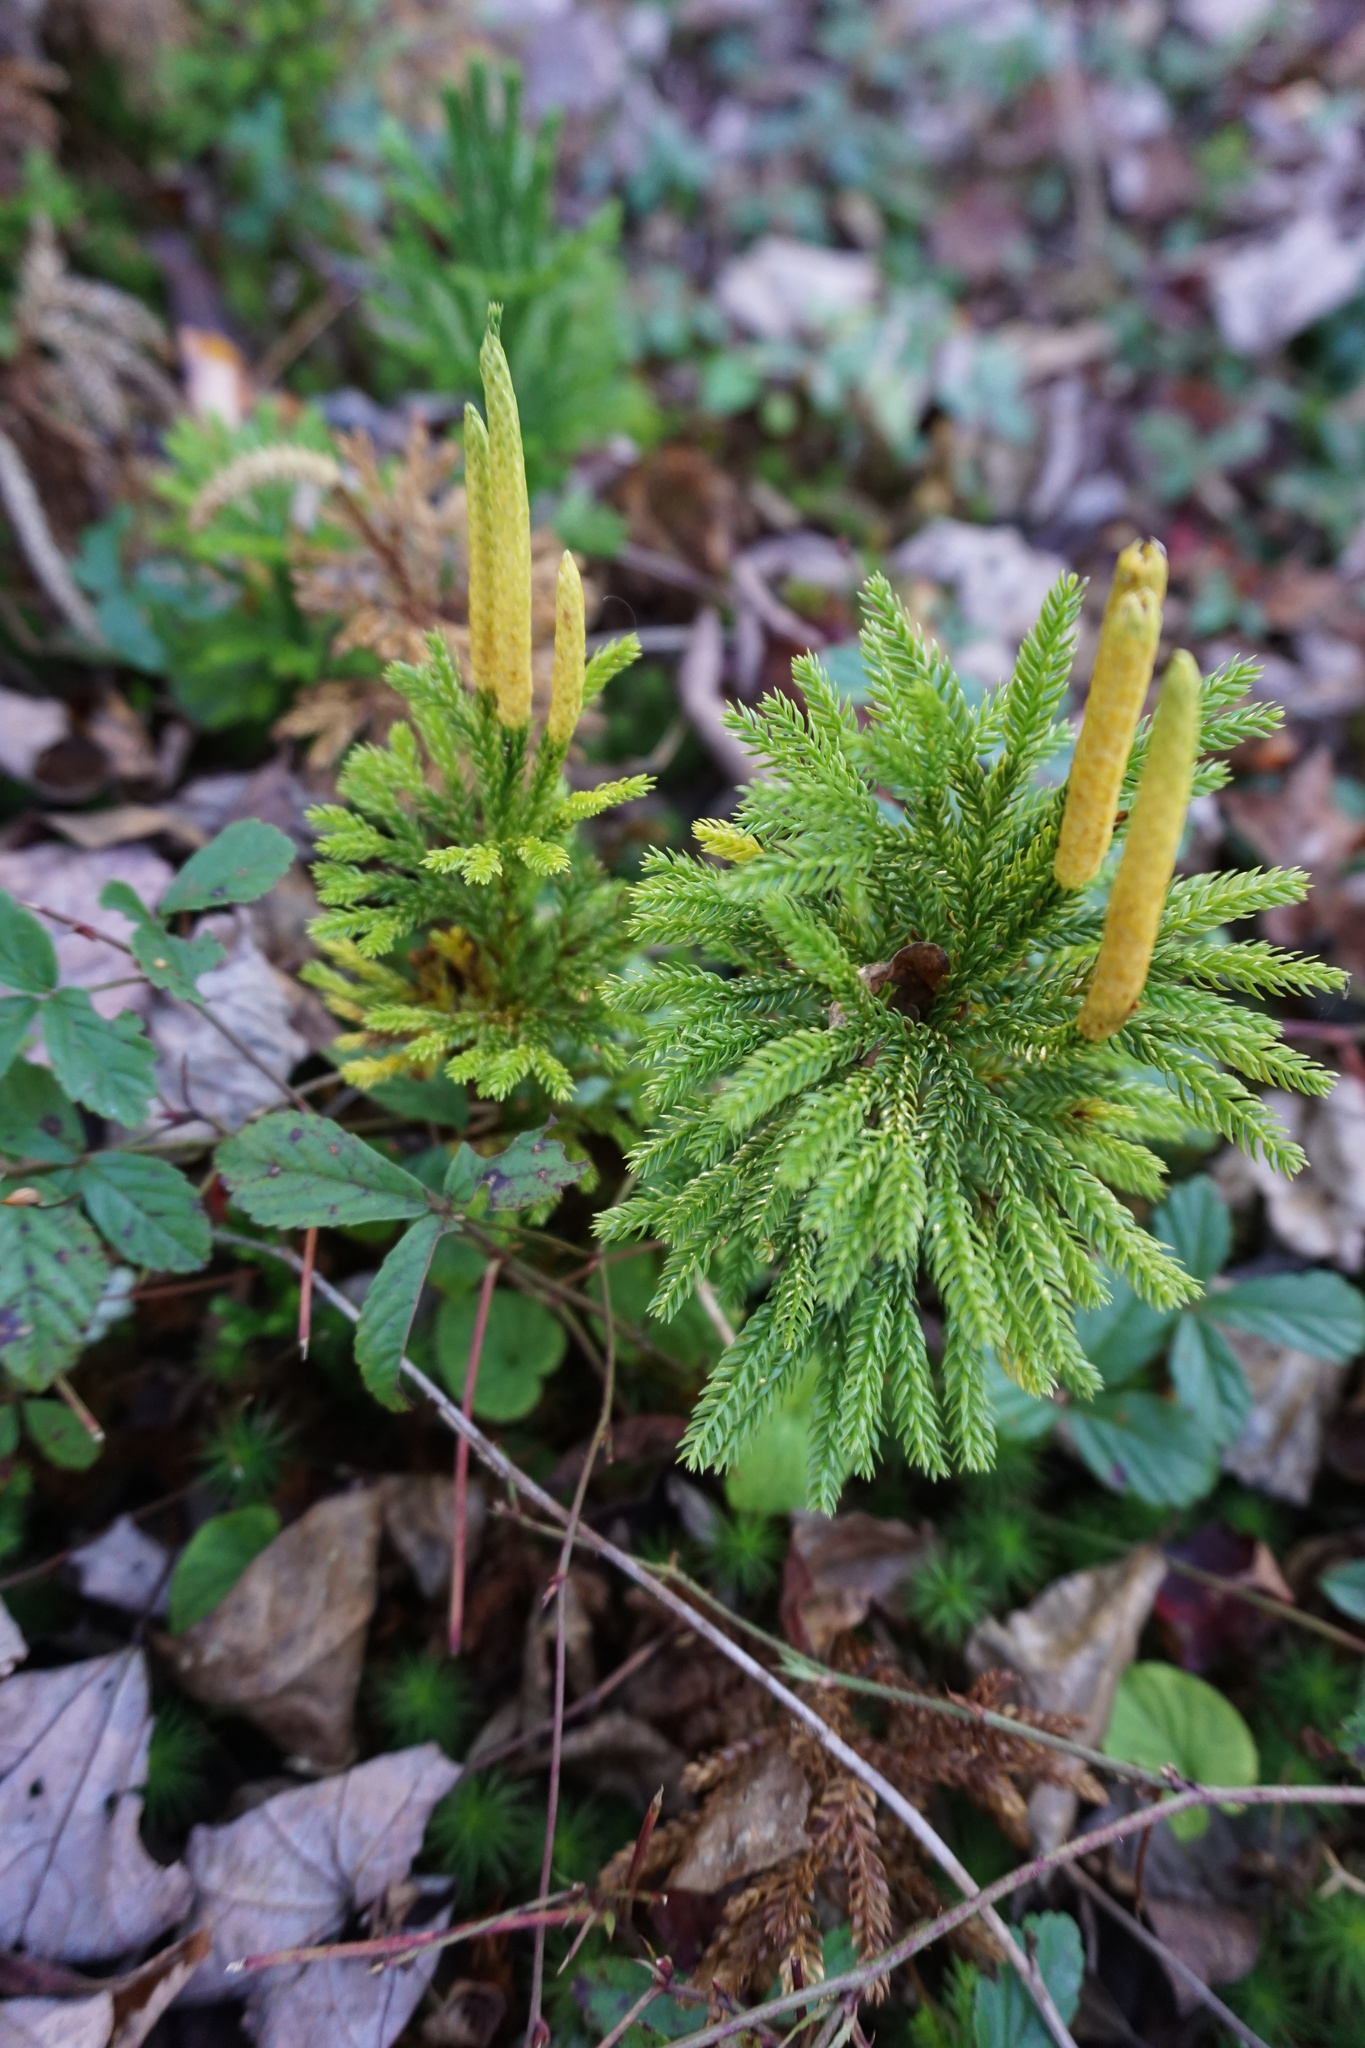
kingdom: Plantae
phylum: Tracheophyta
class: Lycopodiopsida
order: Lycopodiales
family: Lycopodiaceae
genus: Dendrolycopodium
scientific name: Dendrolycopodium obscurum
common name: Common ground-pine
